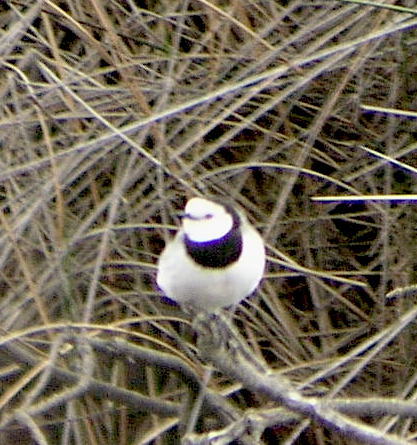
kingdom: Animalia
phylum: Chordata
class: Aves
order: Passeriformes
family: Meliphagidae
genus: Epthianura
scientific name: Epthianura albifrons
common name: White-fronted chat
